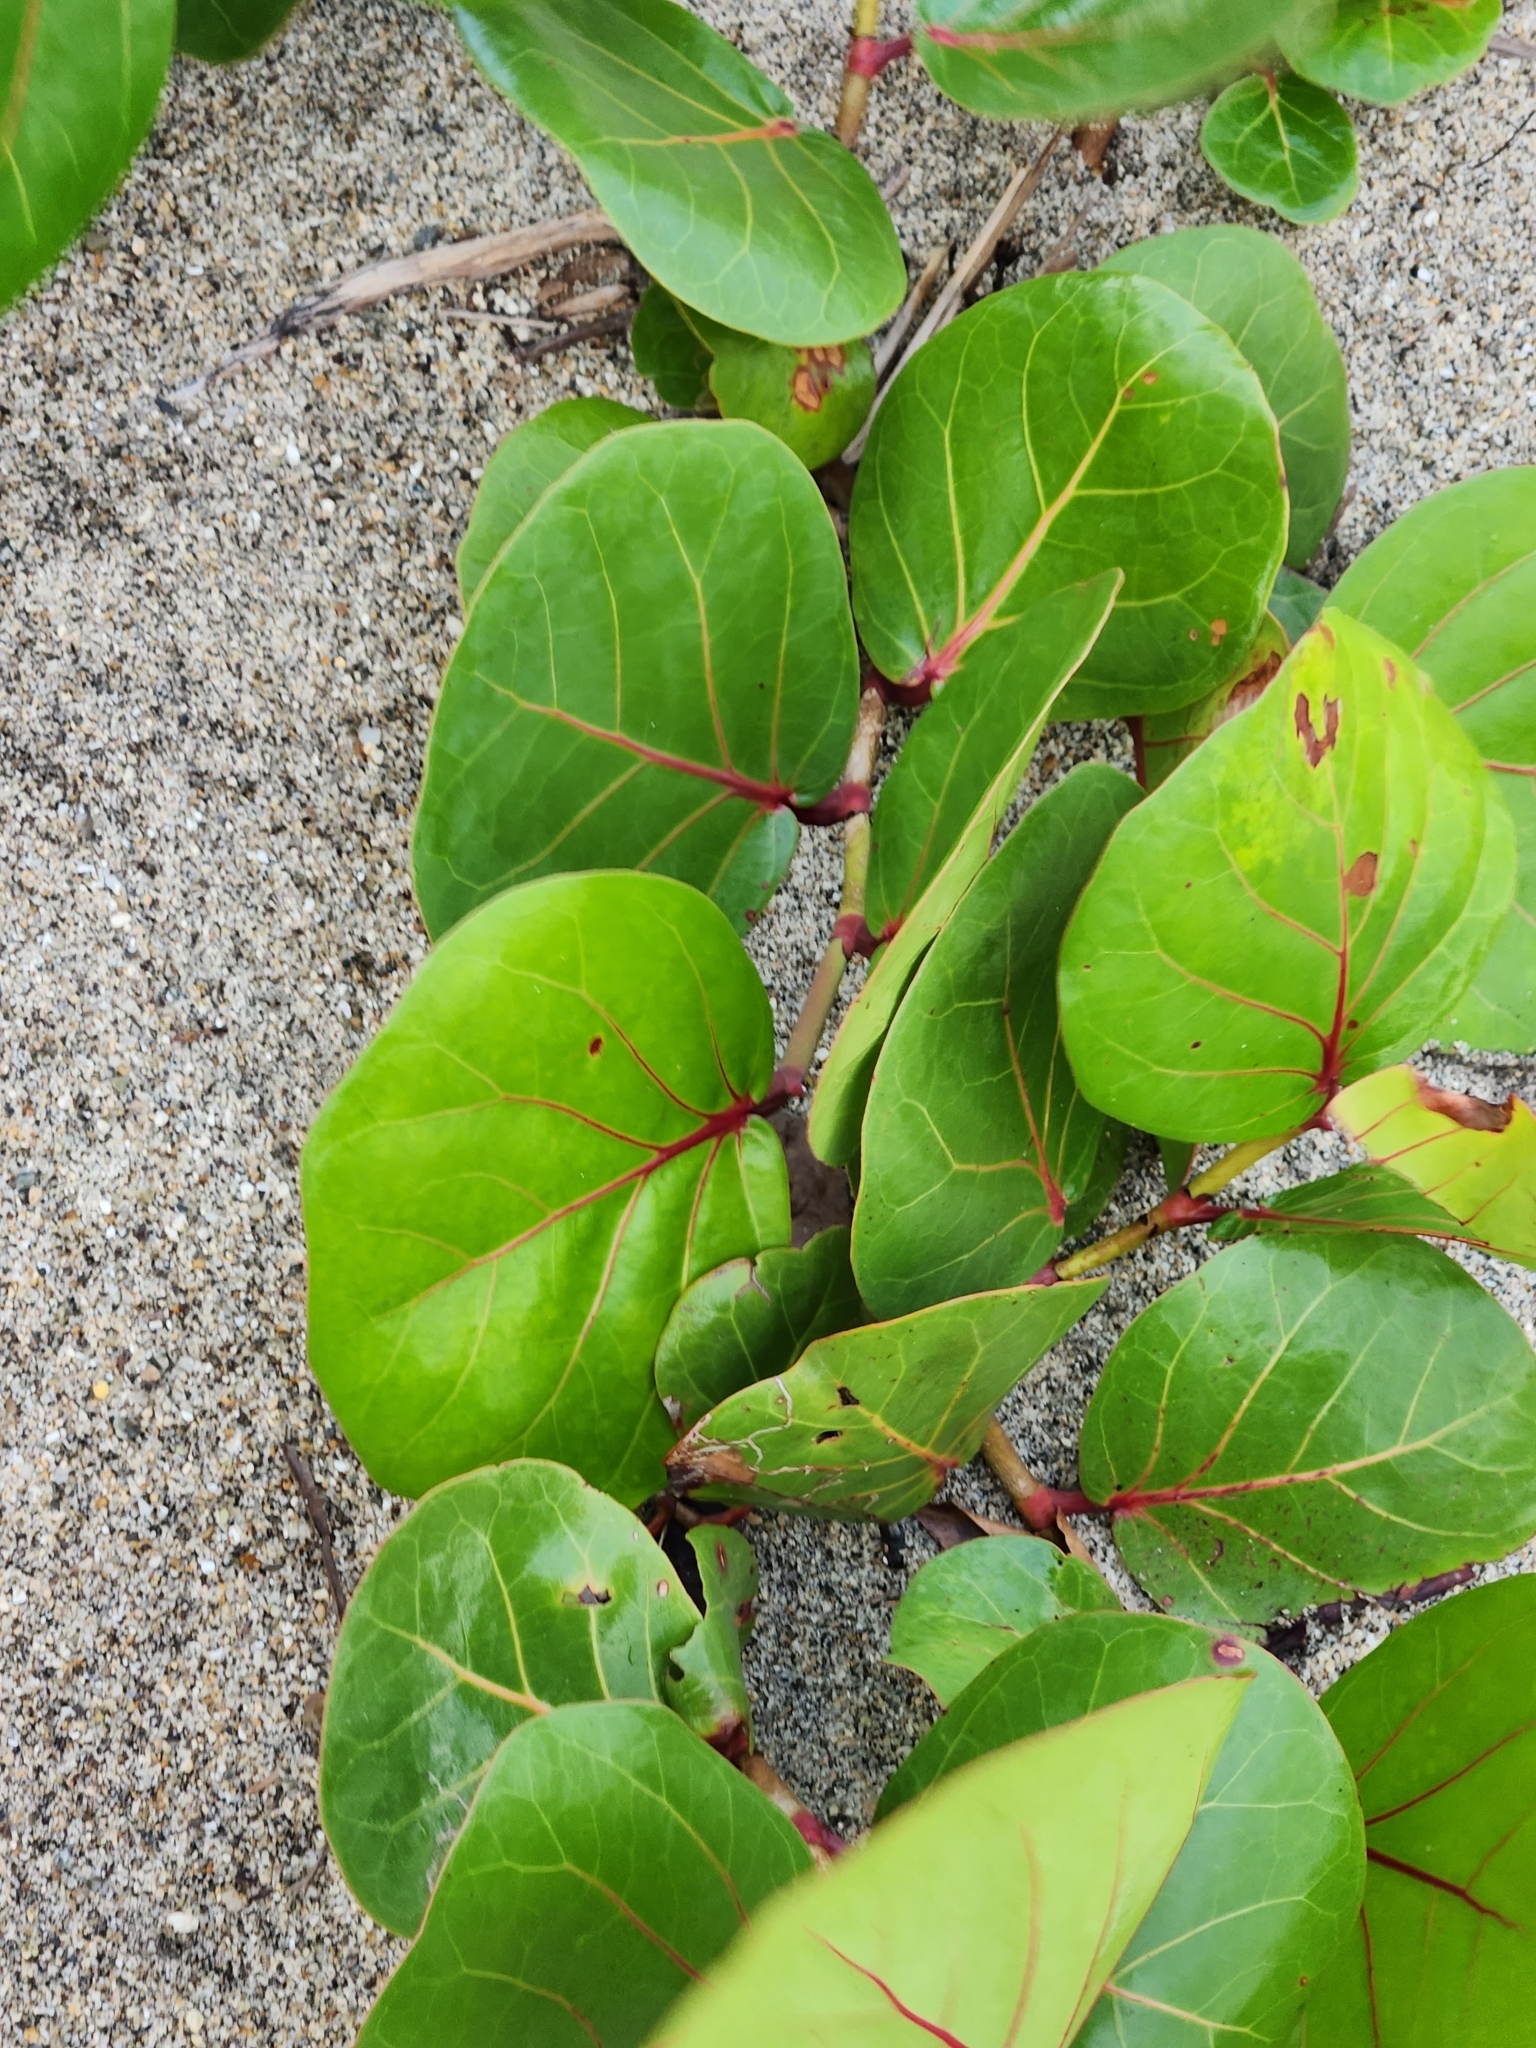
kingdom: Plantae
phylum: Tracheophyta
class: Magnoliopsida
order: Caryophyllales
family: Polygonaceae
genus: Coccoloba
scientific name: Coccoloba uvifera
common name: Seagrape
